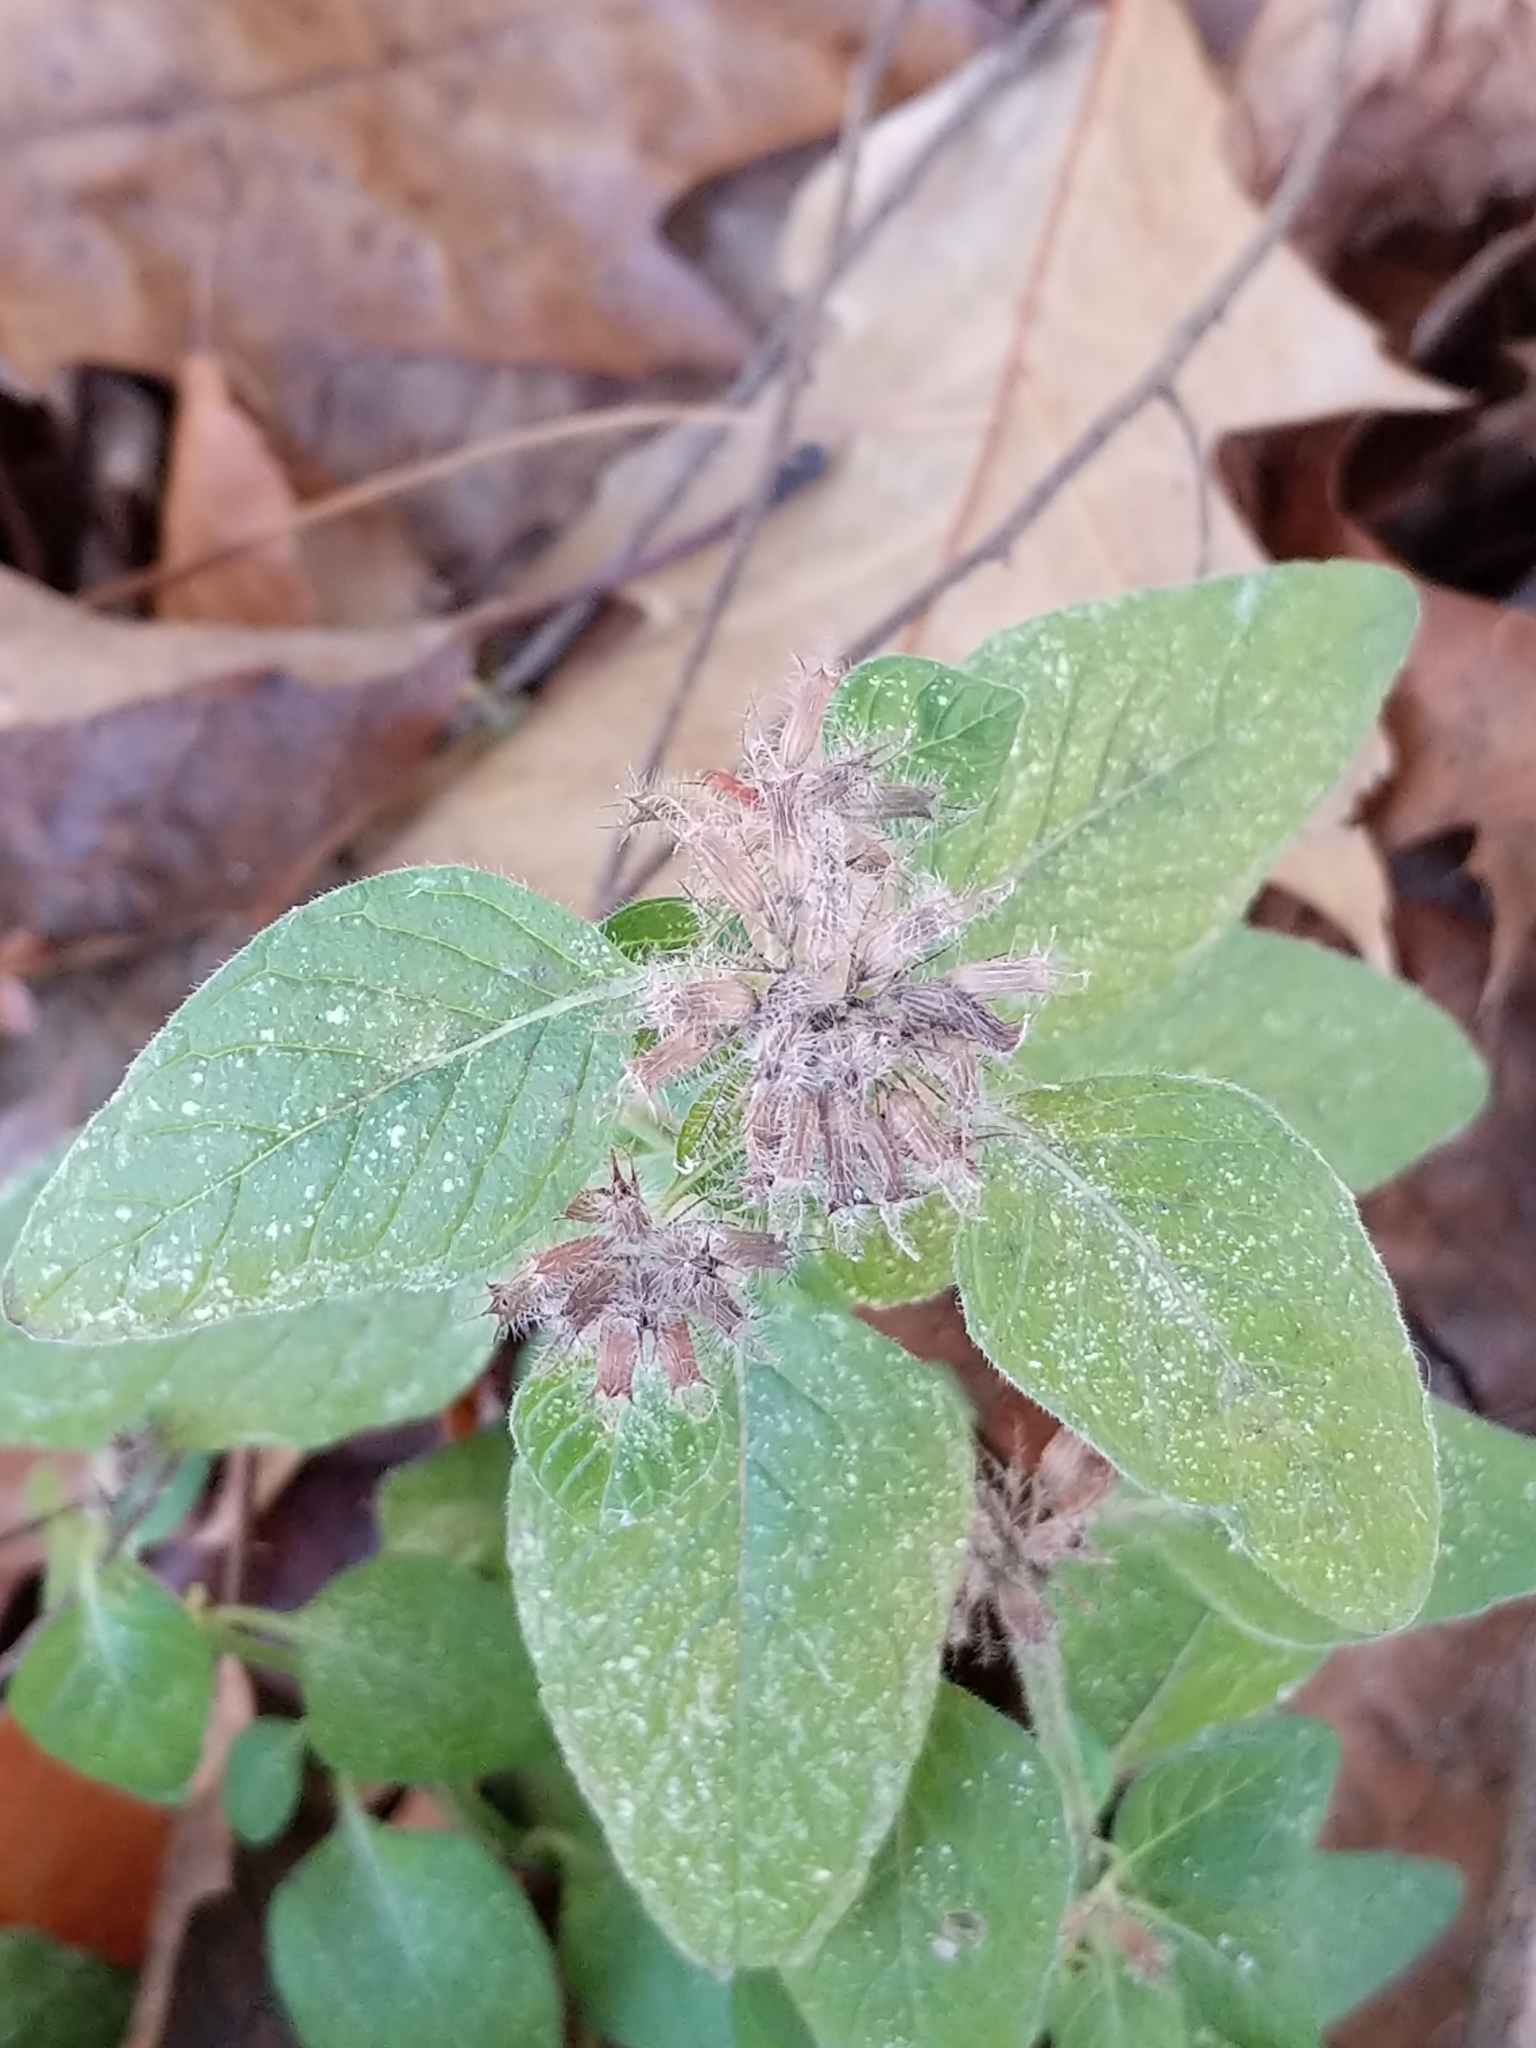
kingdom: Plantae
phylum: Tracheophyta
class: Magnoliopsida
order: Lamiales
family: Lamiaceae
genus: Clinopodium
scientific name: Clinopodium vulgare
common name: Wild basil
